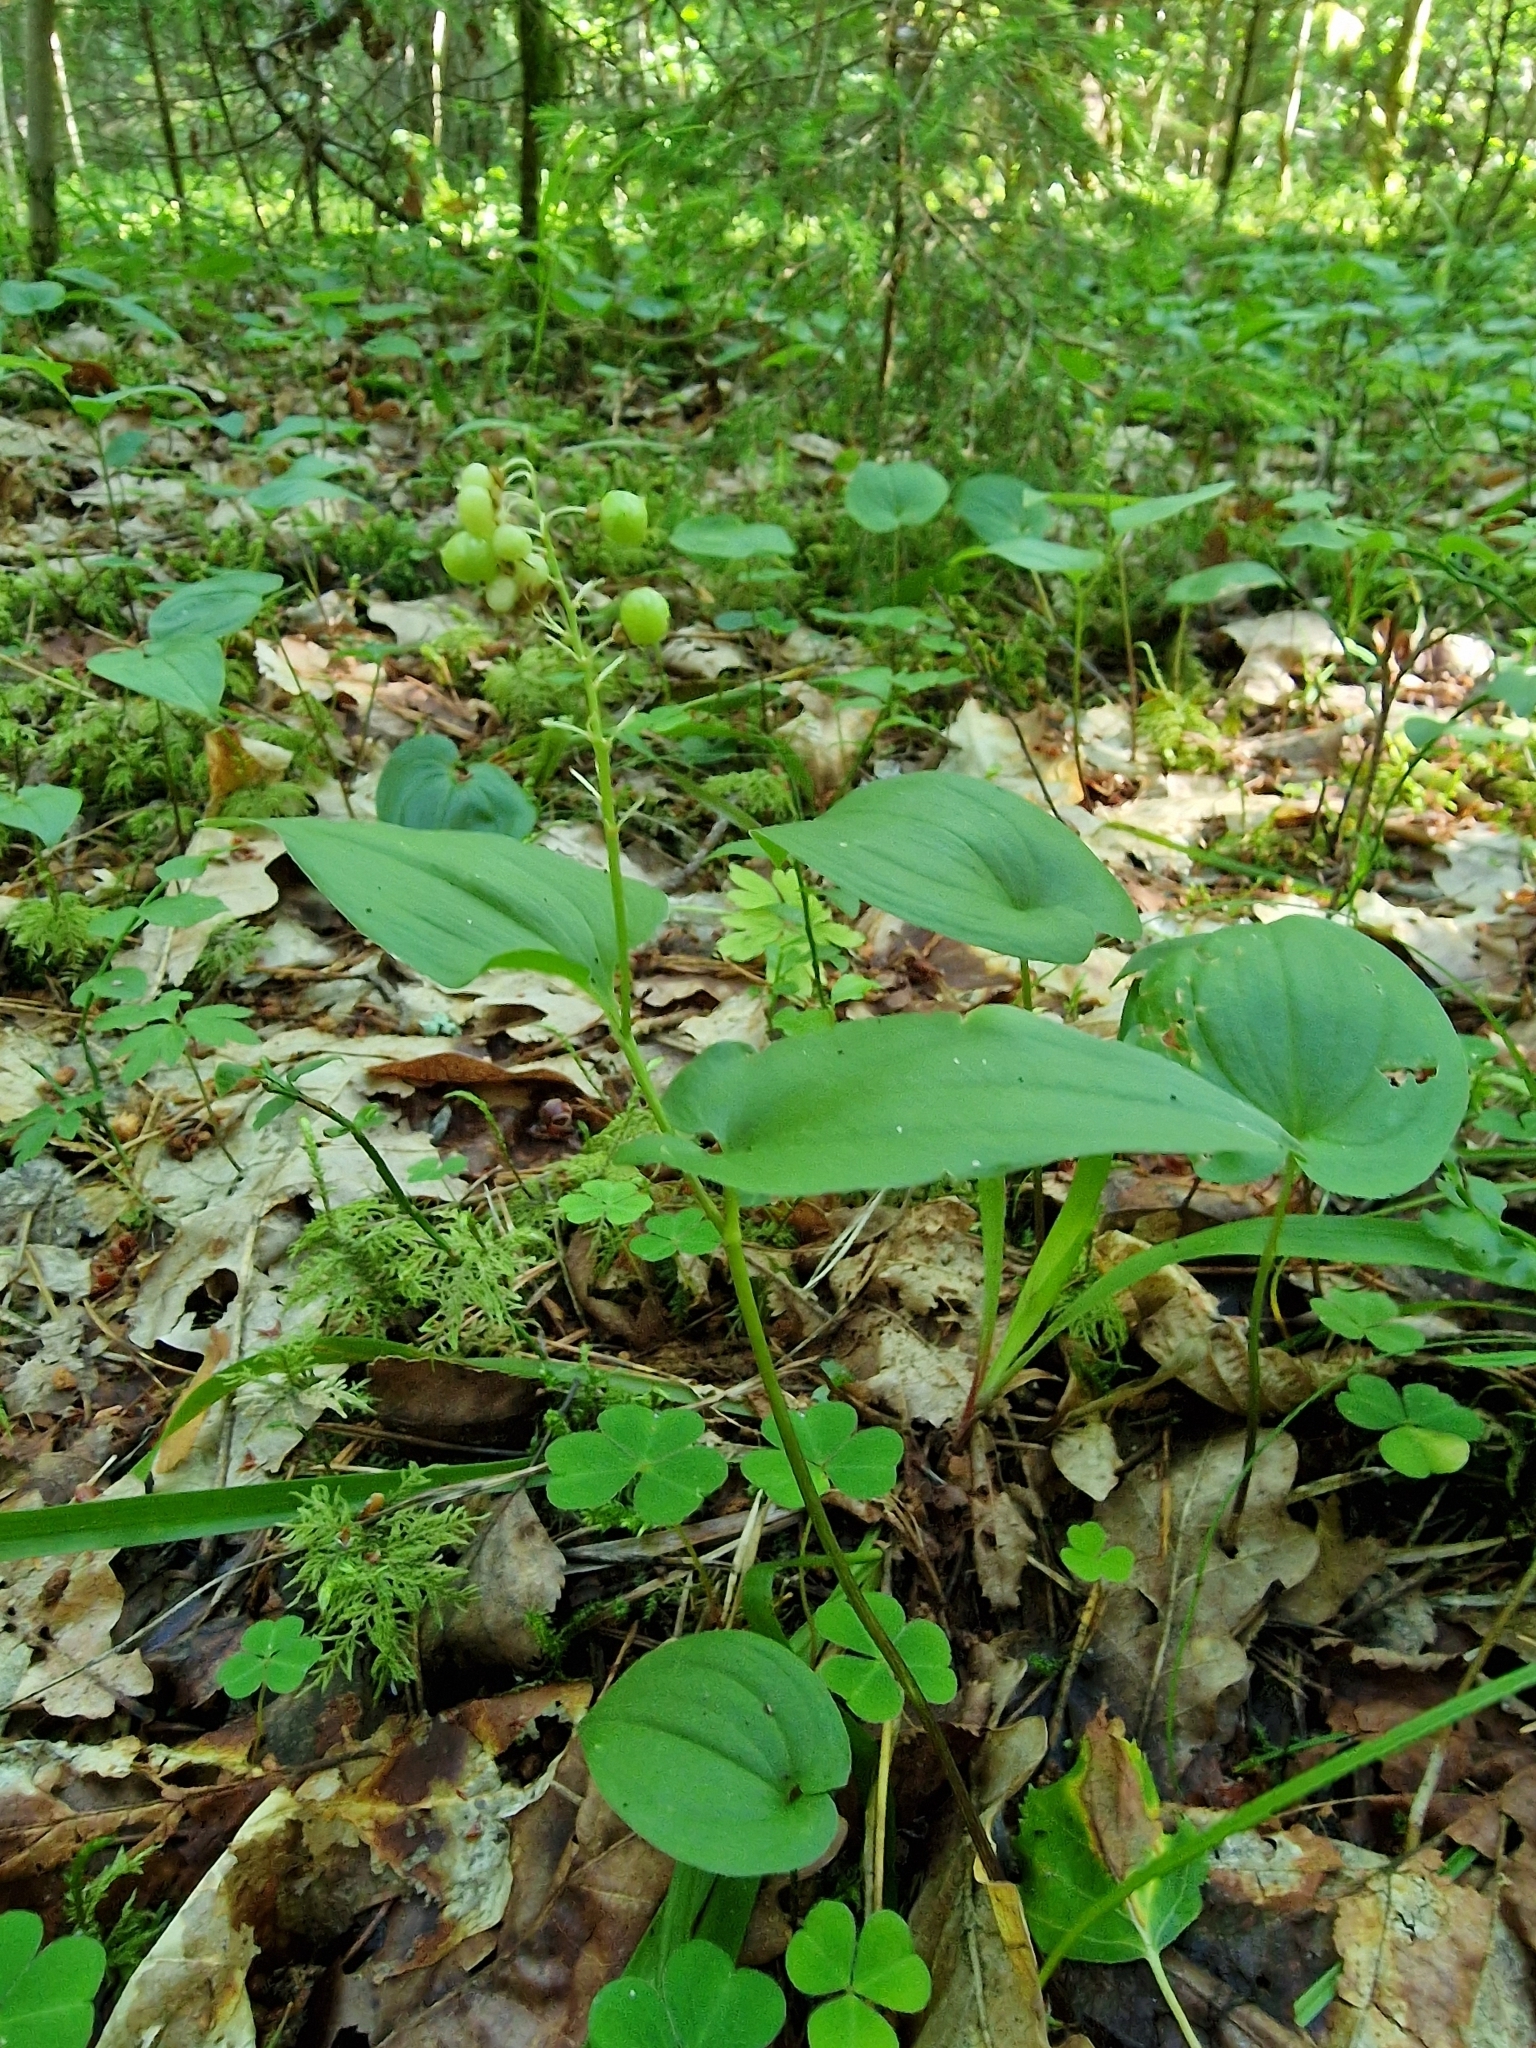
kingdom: Plantae
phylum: Tracheophyta
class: Liliopsida
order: Asparagales
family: Asparagaceae
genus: Maianthemum
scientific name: Maianthemum bifolium
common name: May lily
